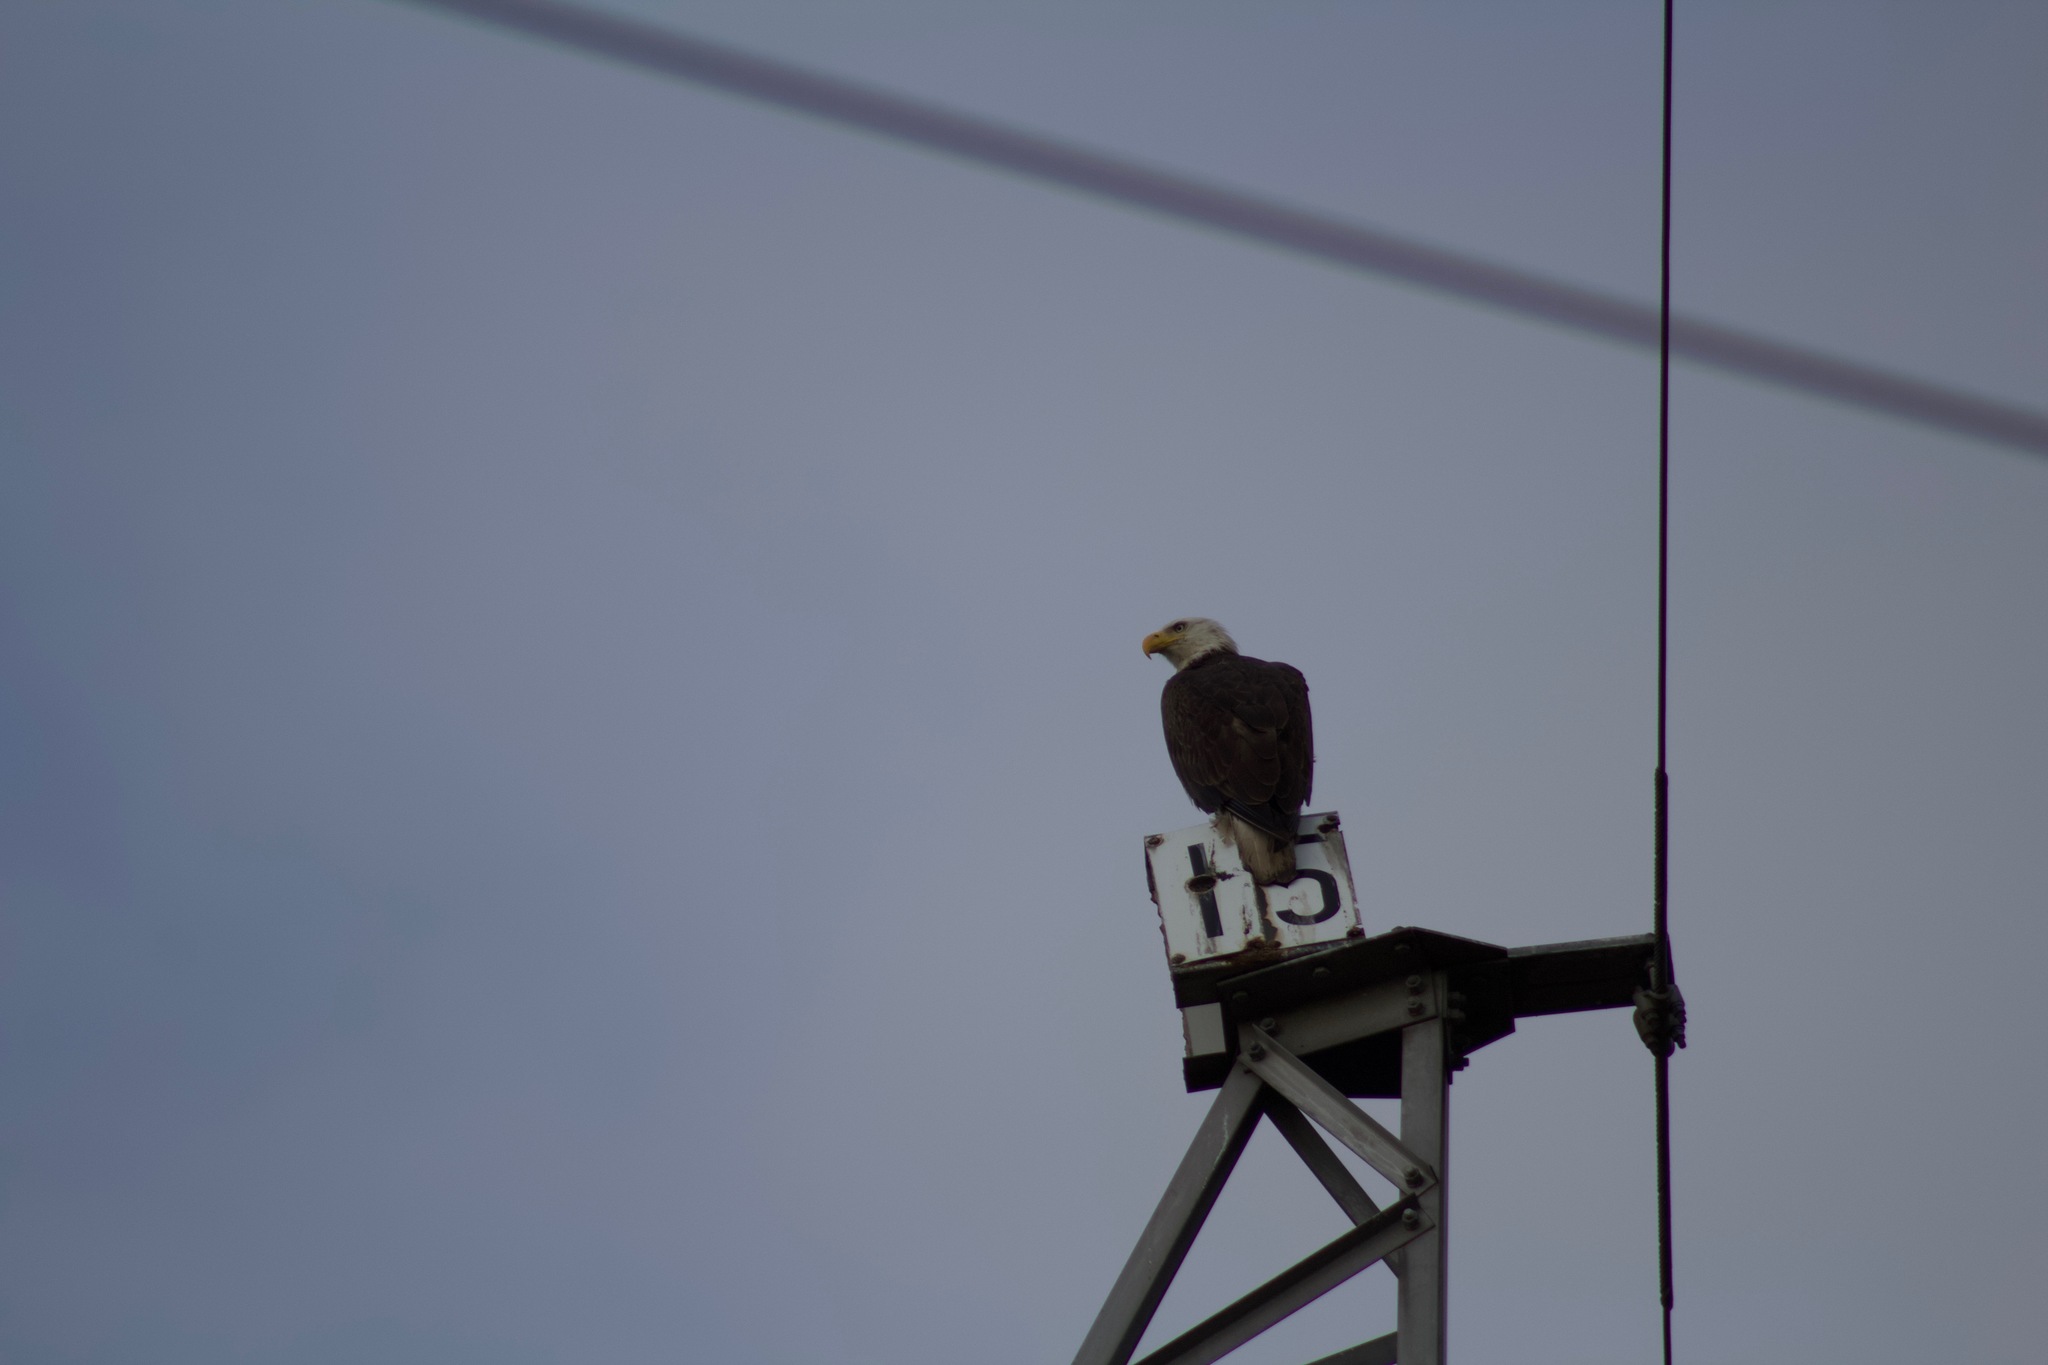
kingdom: Animalia
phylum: Chordata
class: Aves
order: Accipitriformes
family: Accipitridae
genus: Haliaeetus
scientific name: Haliaeetus leucocephalus
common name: Bald eagle
